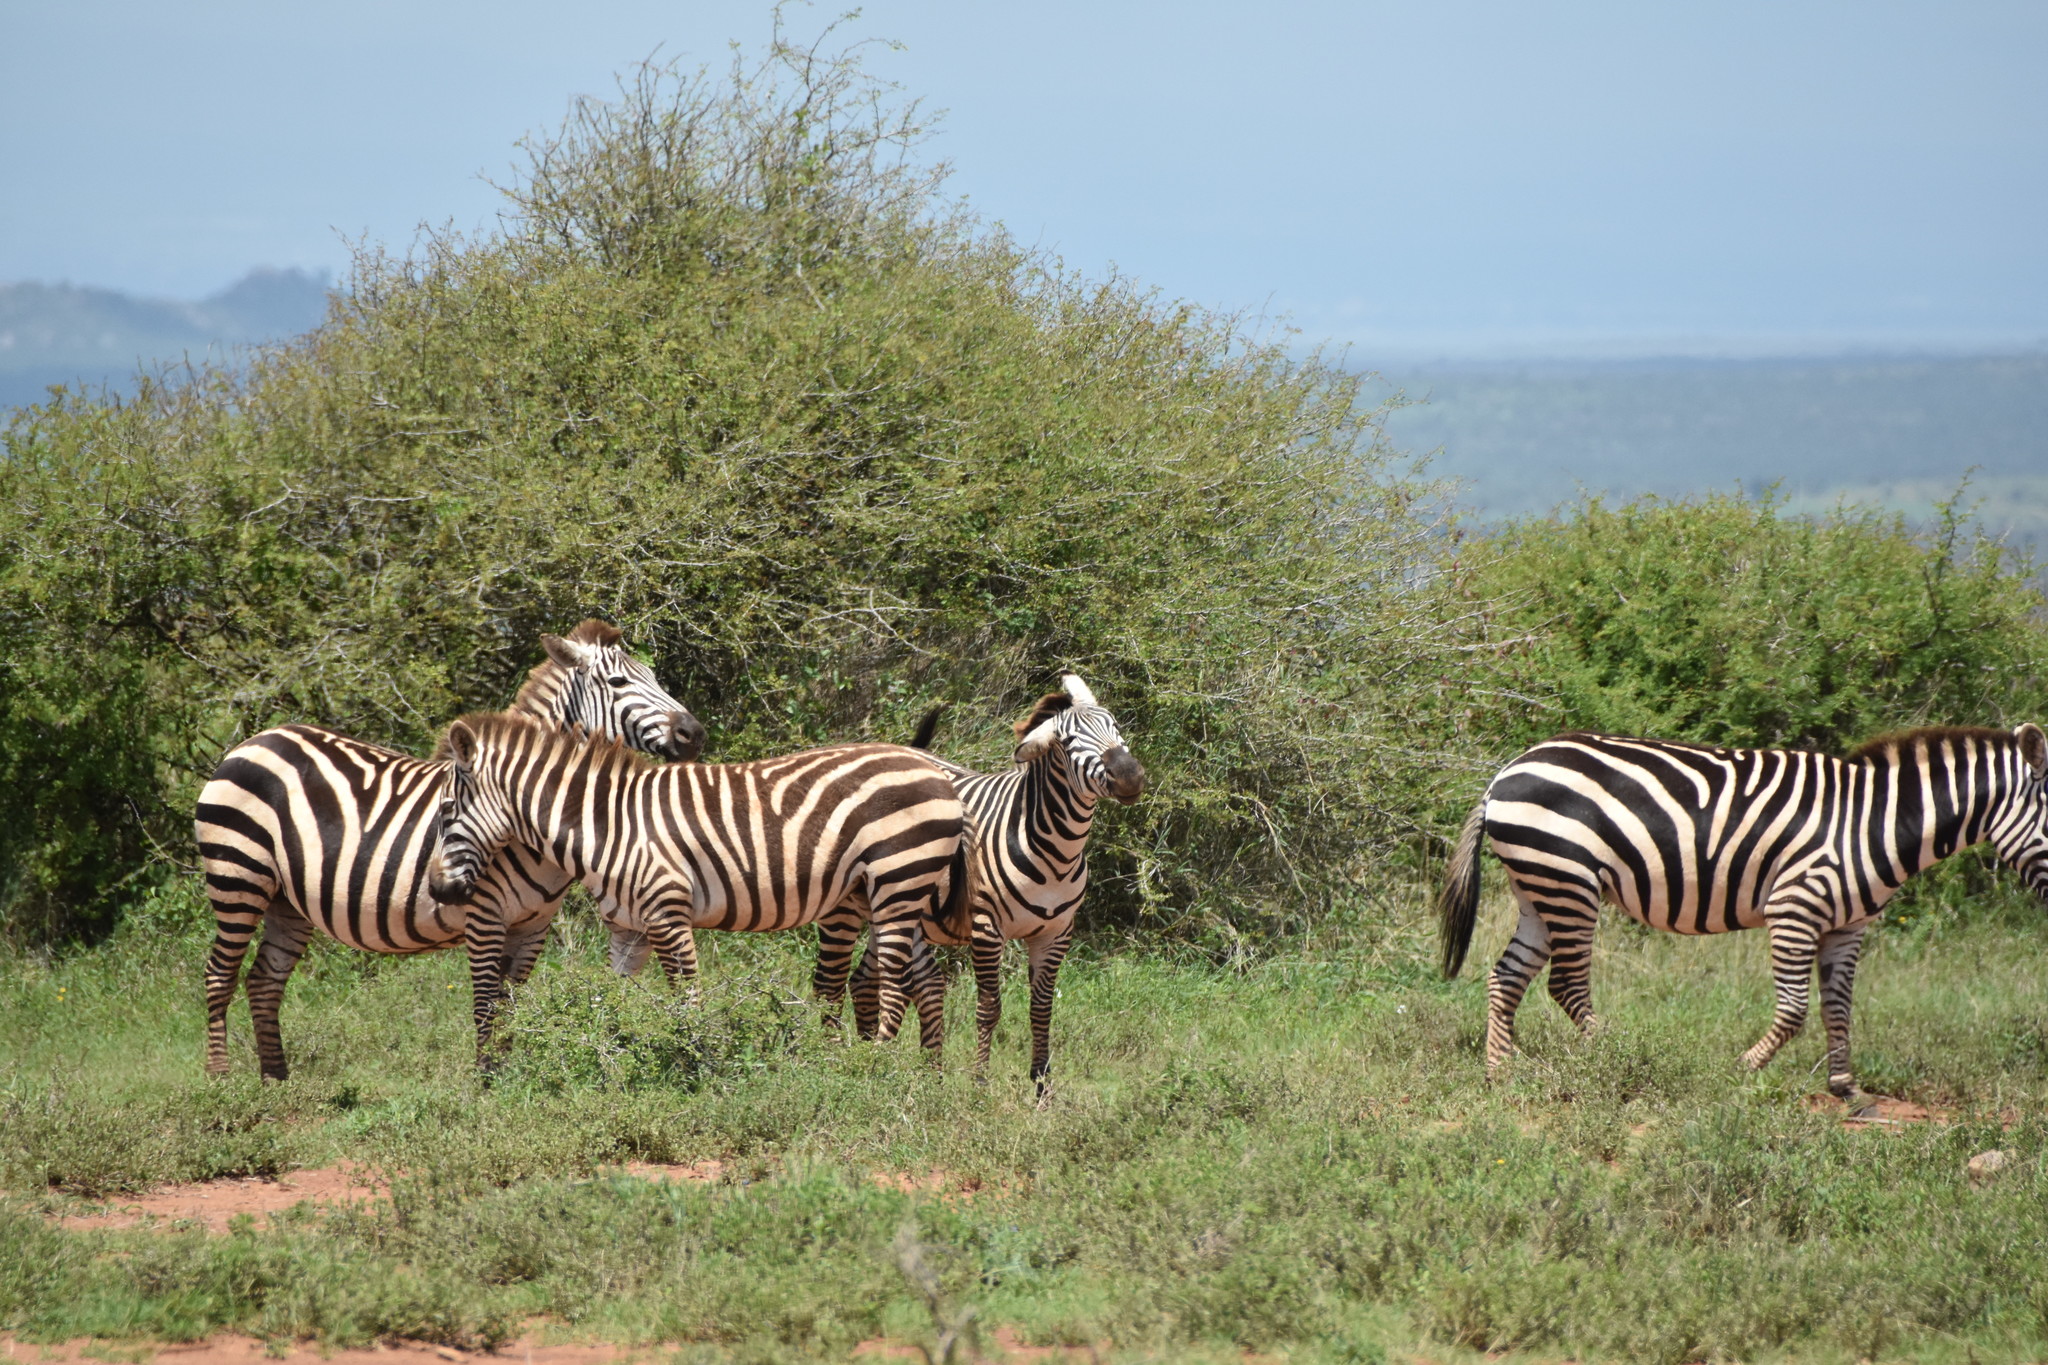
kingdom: Animalia
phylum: Chordata
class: Mammalia
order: Perissodactyla
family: Equidae
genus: Equus
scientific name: Equus quagga
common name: Plains zebra
